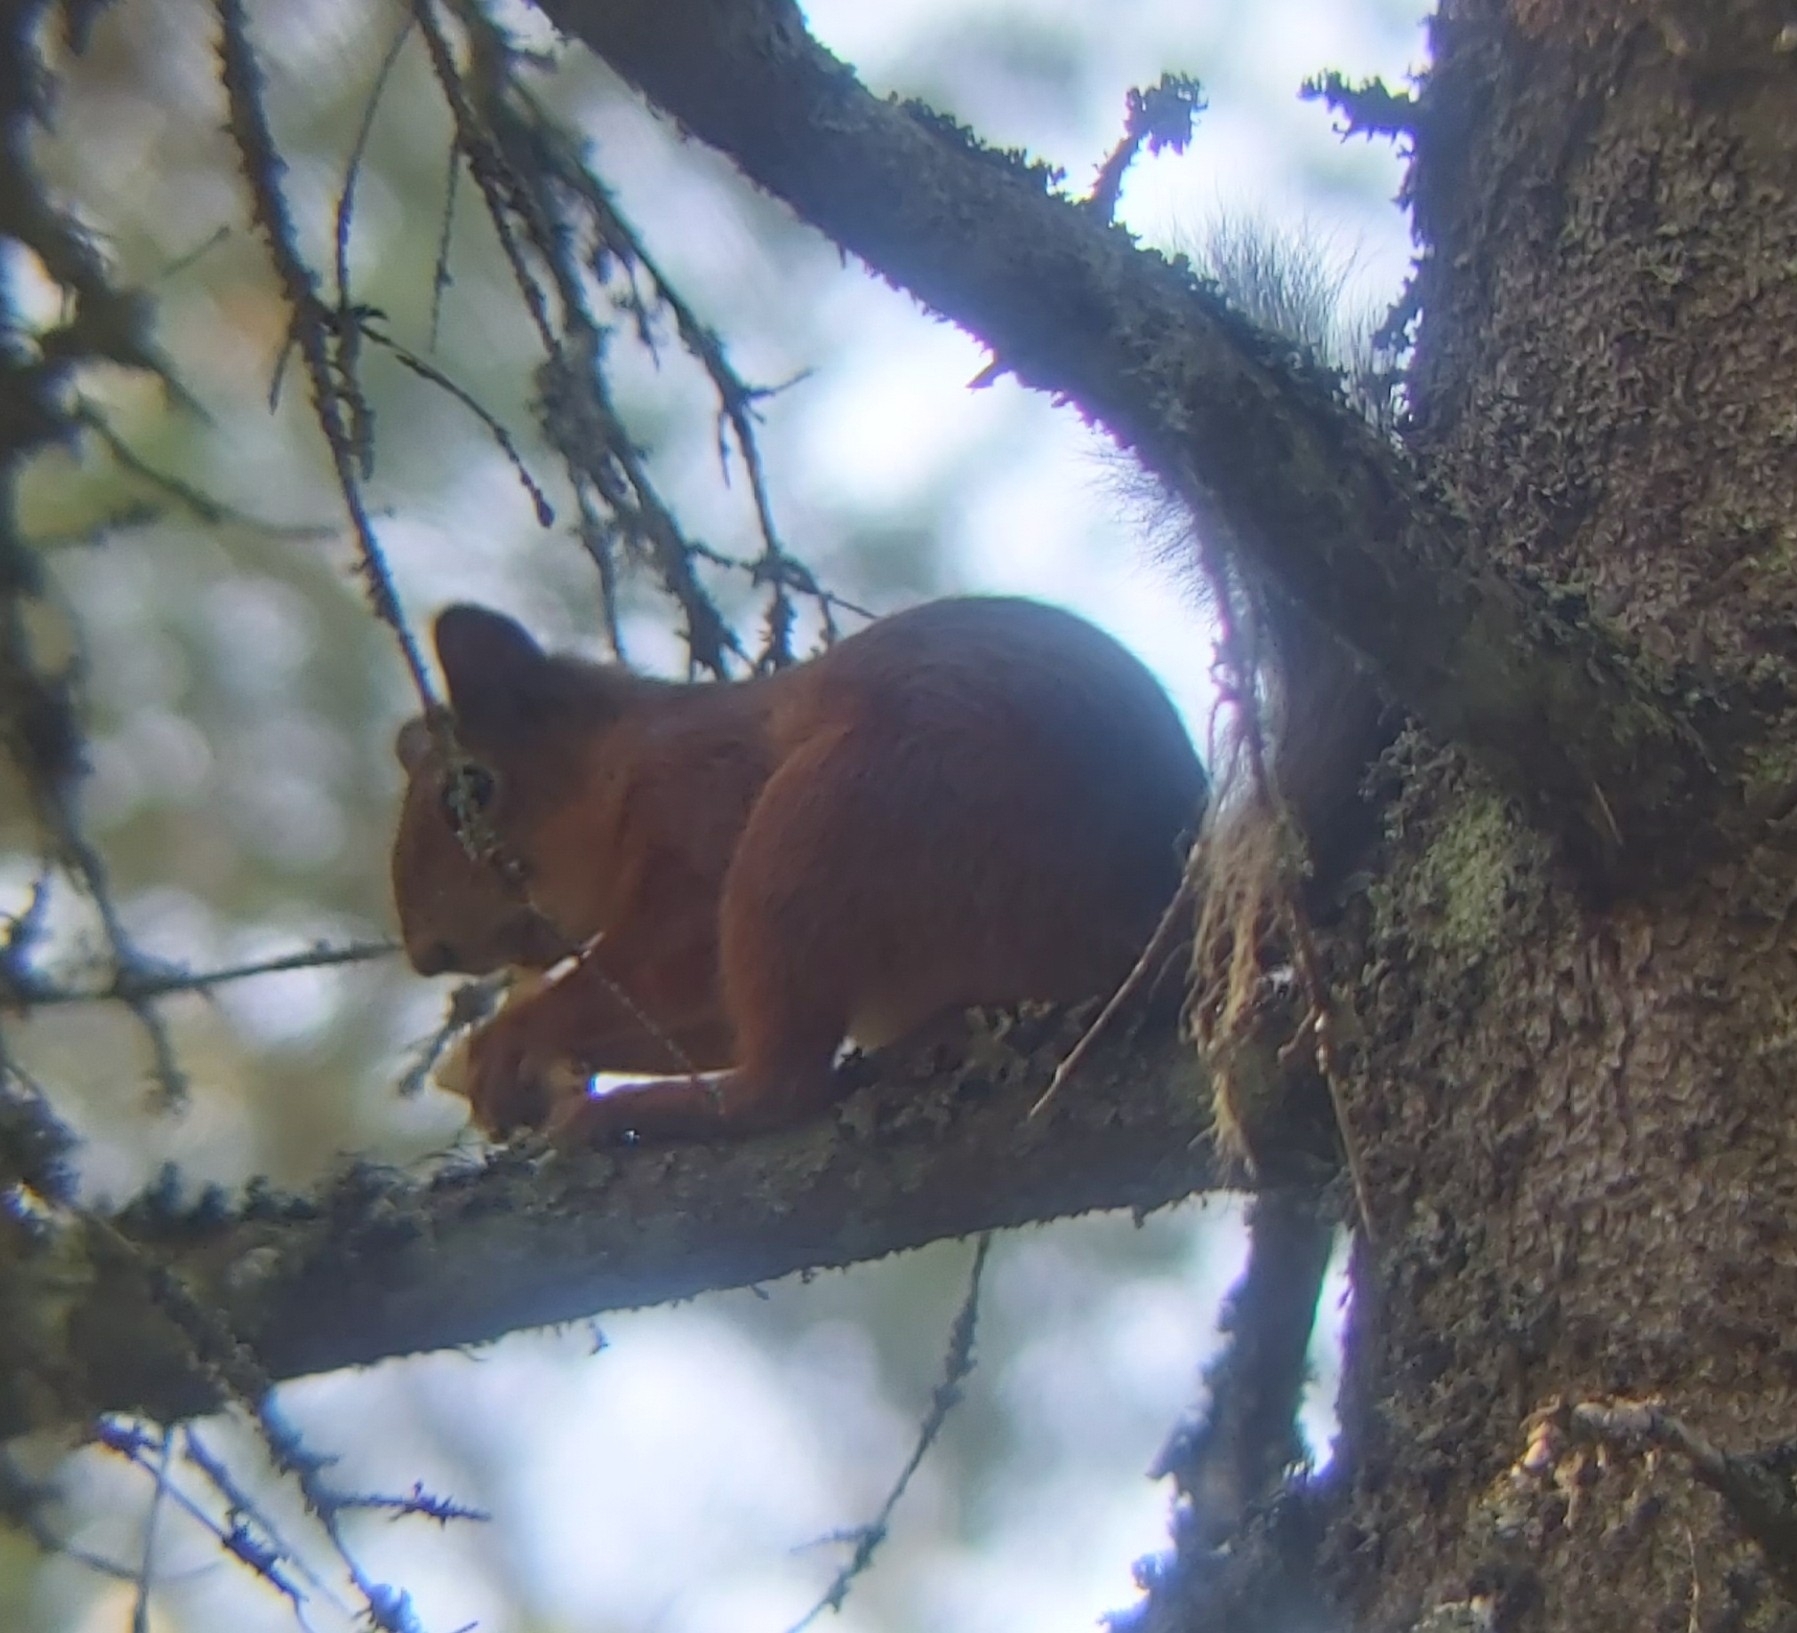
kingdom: Animalia
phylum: Chordata
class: Mammalia
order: Rodentia
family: Sciuridae
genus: Sciurus
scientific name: Sciurus vulgaris
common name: Eurasian red squirrel
